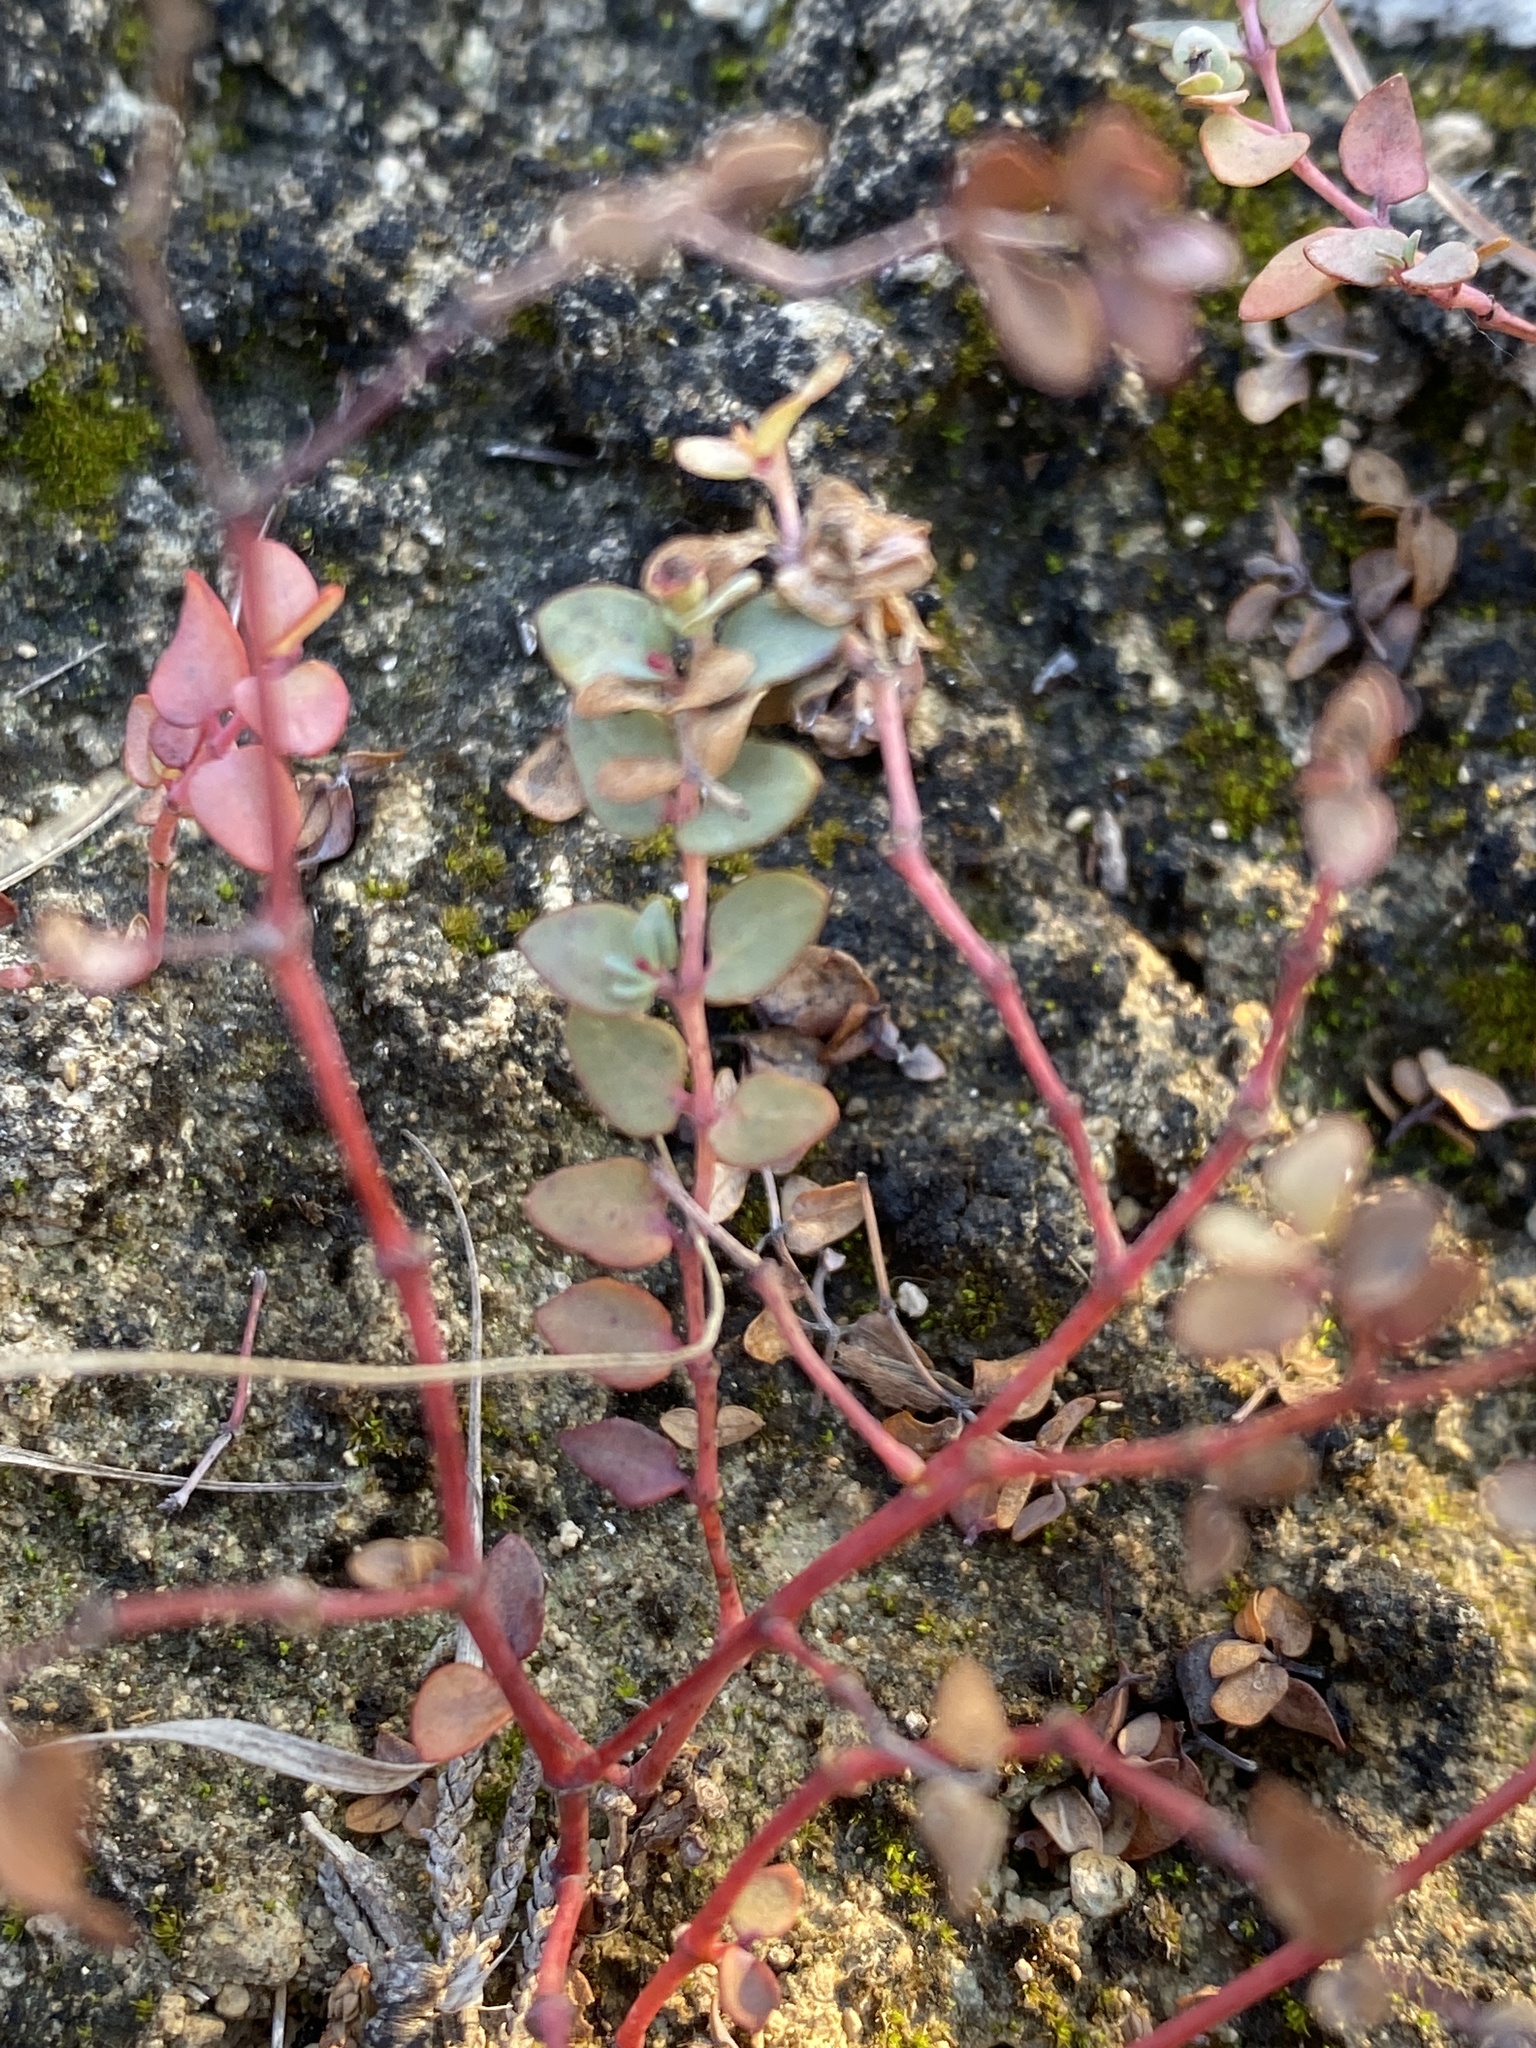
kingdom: Plantae
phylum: Tracheophyta
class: Magnoliopsida
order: Malpighiales
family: Euphorbiaceae
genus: Euphorbia
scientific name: Euphorbia fendleri
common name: Fendler's euphorbia
